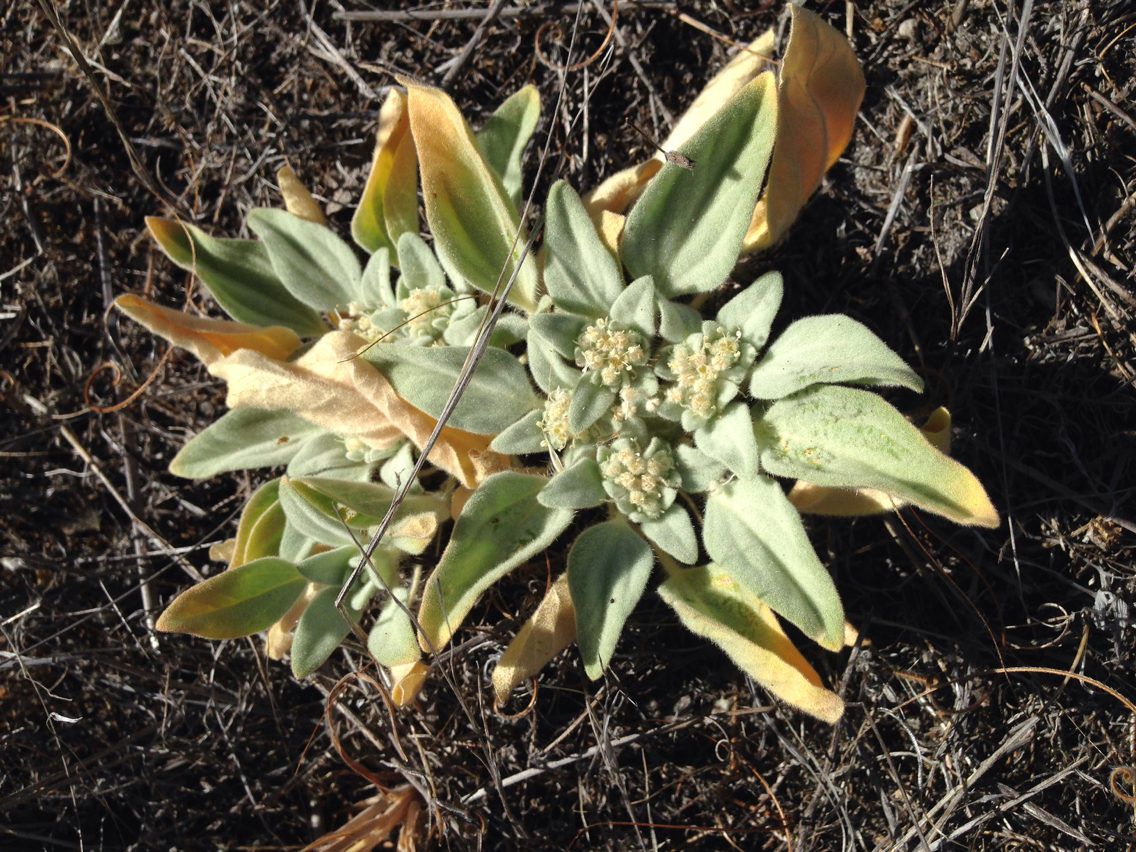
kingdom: Plantae
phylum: Tracheophyta
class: Magnoliopsida
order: Malpighiales
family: Euphorbiaceae
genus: Croton
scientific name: Croton setiger
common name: Dove weed
